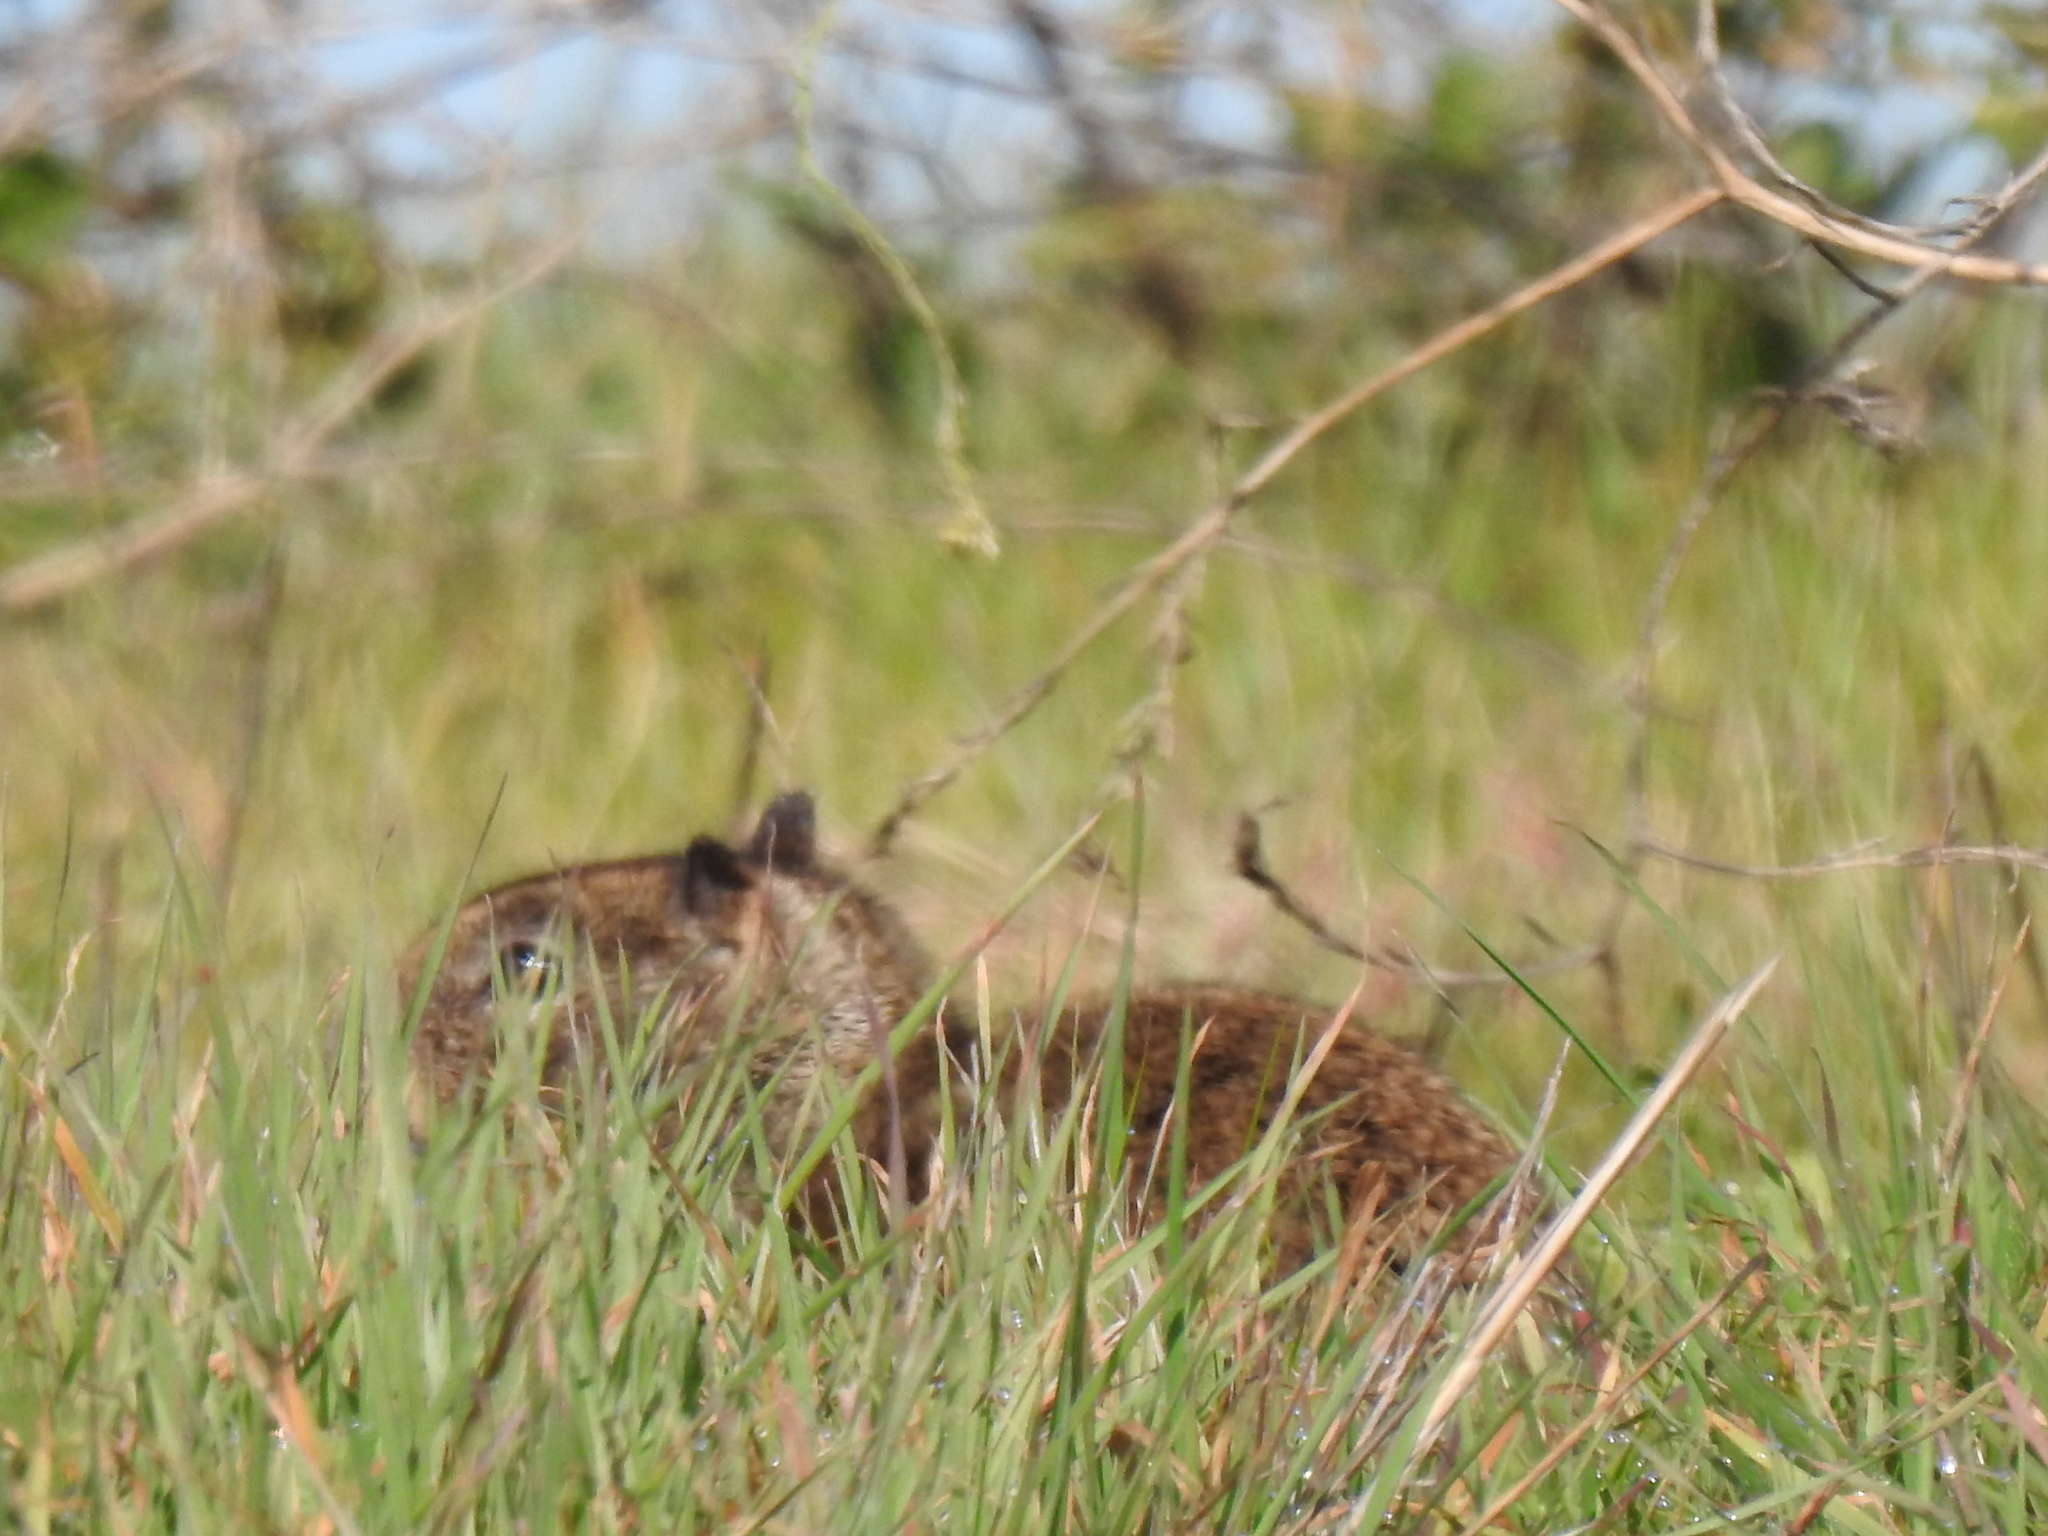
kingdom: Animalia
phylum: Chordata
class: Mammalia
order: Rodentia
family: Sciuridae
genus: Otospermophilus
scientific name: Otospermophilus beecheyi
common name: California ground squirrel
